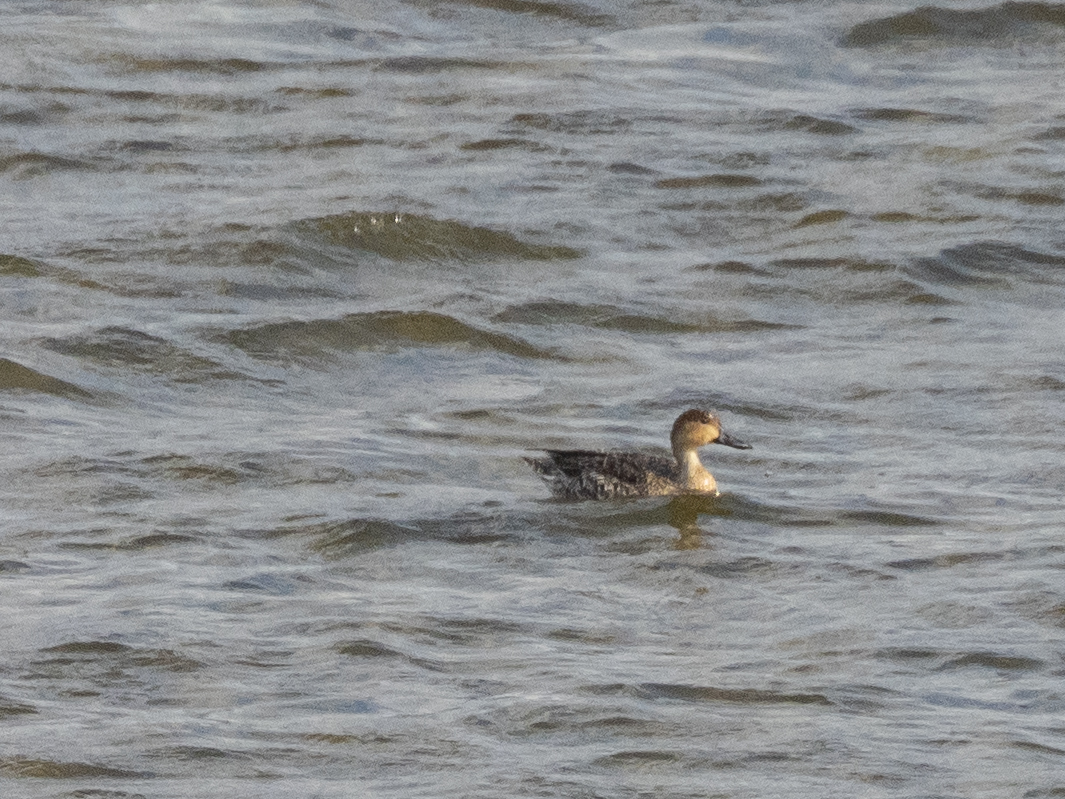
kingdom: Animalia
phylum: Chordata
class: Aves
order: Anseriformes
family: Anatidae
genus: Anas
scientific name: Anas acuta
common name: Northern pintail
